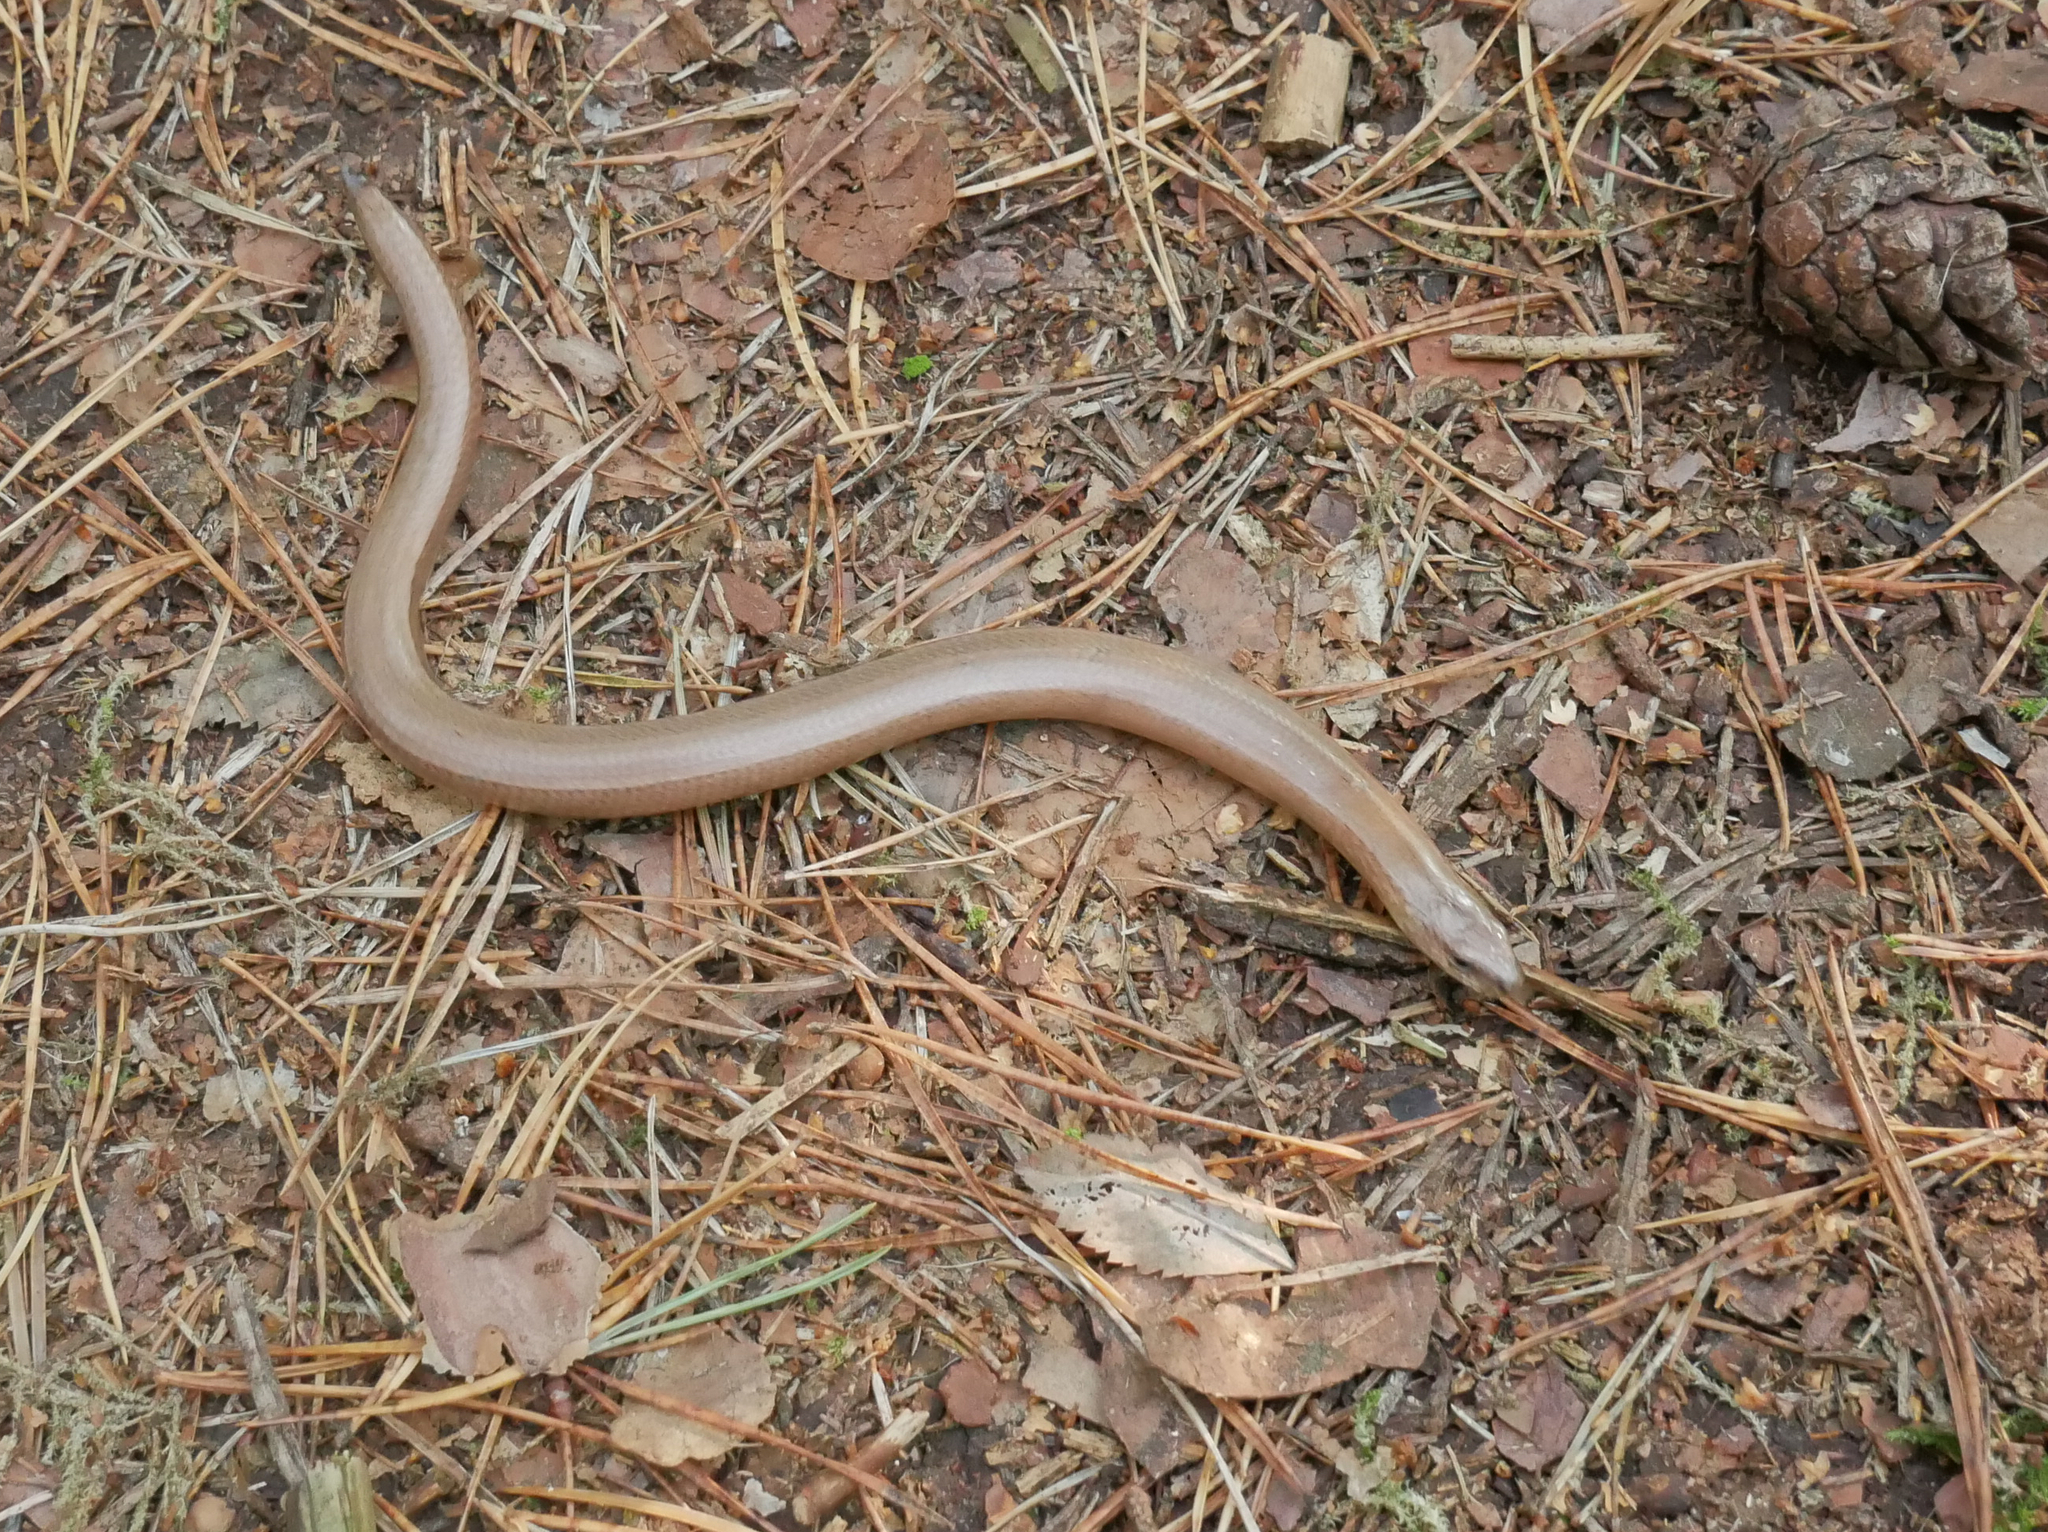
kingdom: Animalia
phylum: Chordata
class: Squamata
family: Anguidae
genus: Anguis
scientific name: Anguis fragilis
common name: Slow worm
